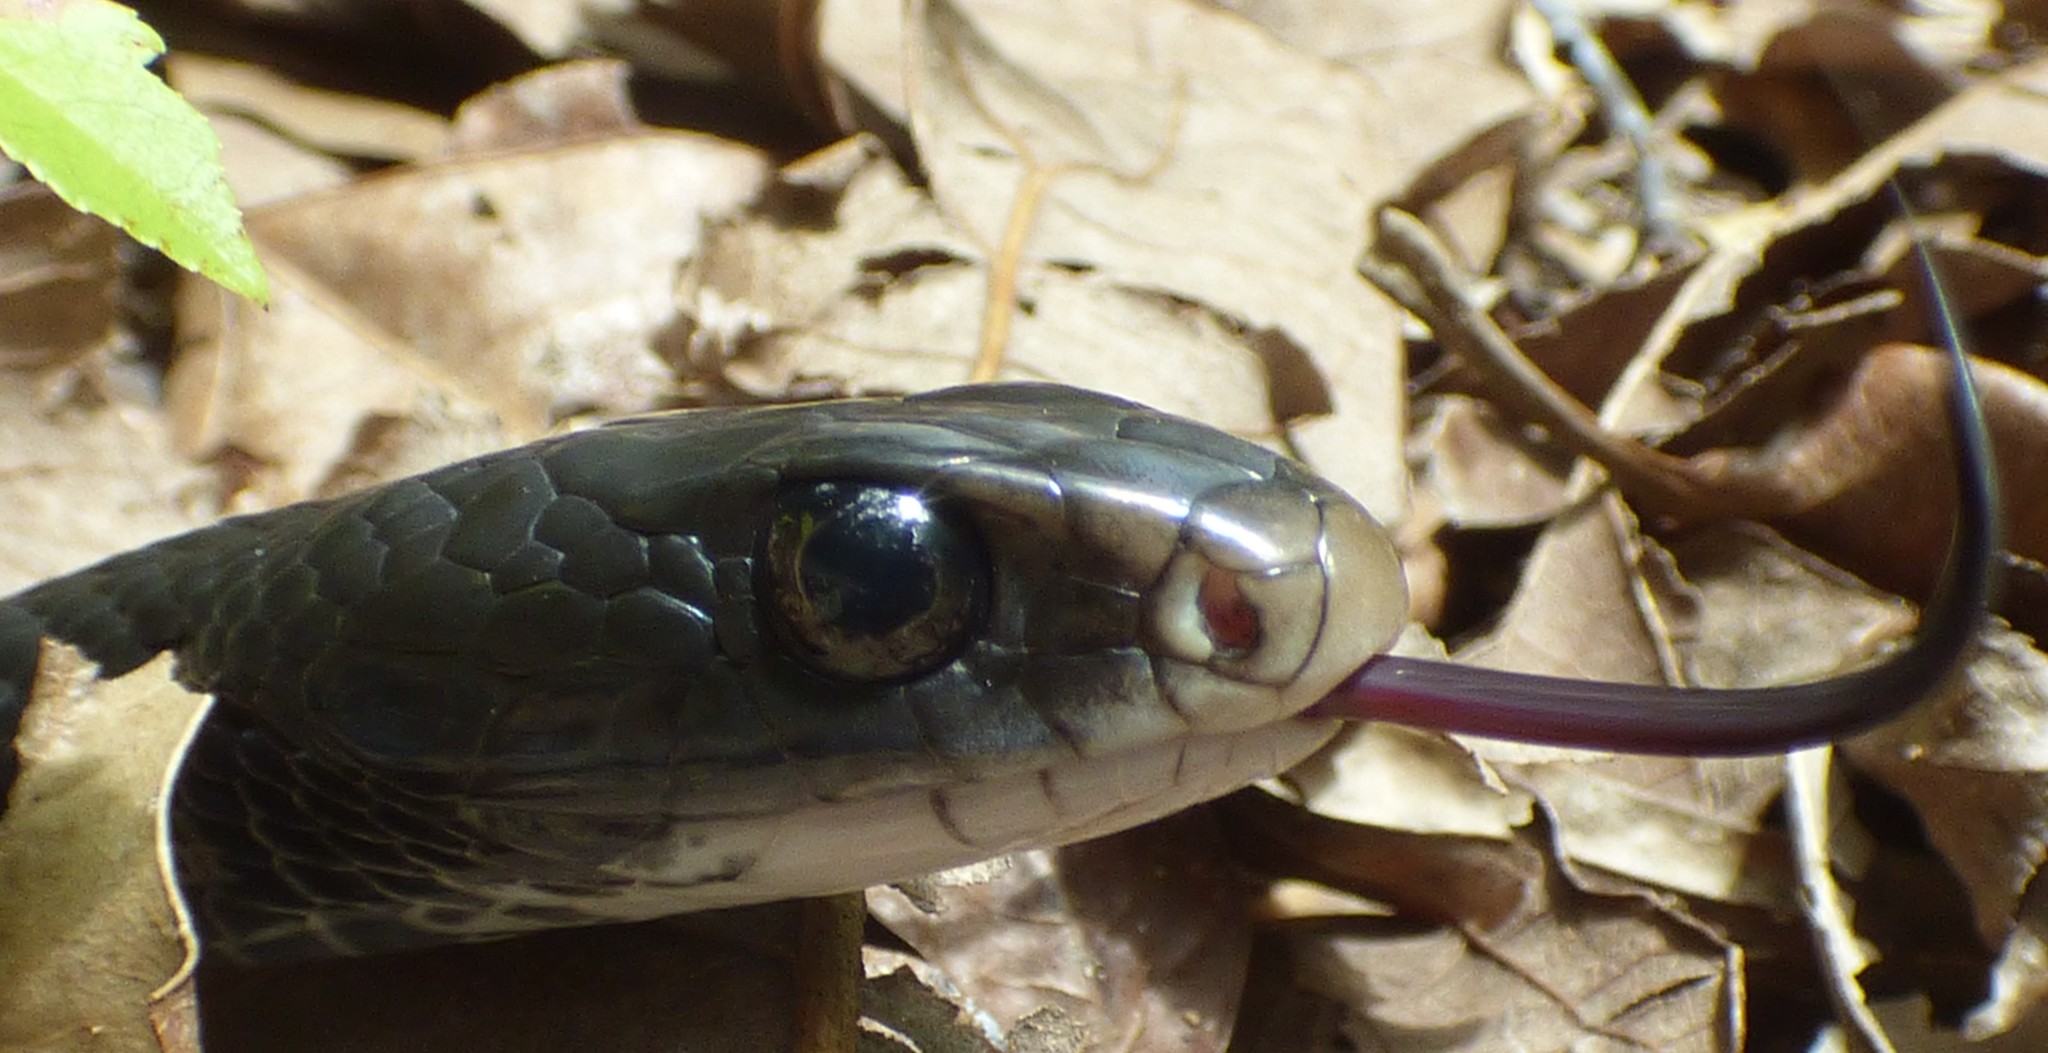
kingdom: Animalia
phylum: Chordata
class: Squamata
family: Colubridae
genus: Coluber
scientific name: Coluber constrictor
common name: Eastern racer
